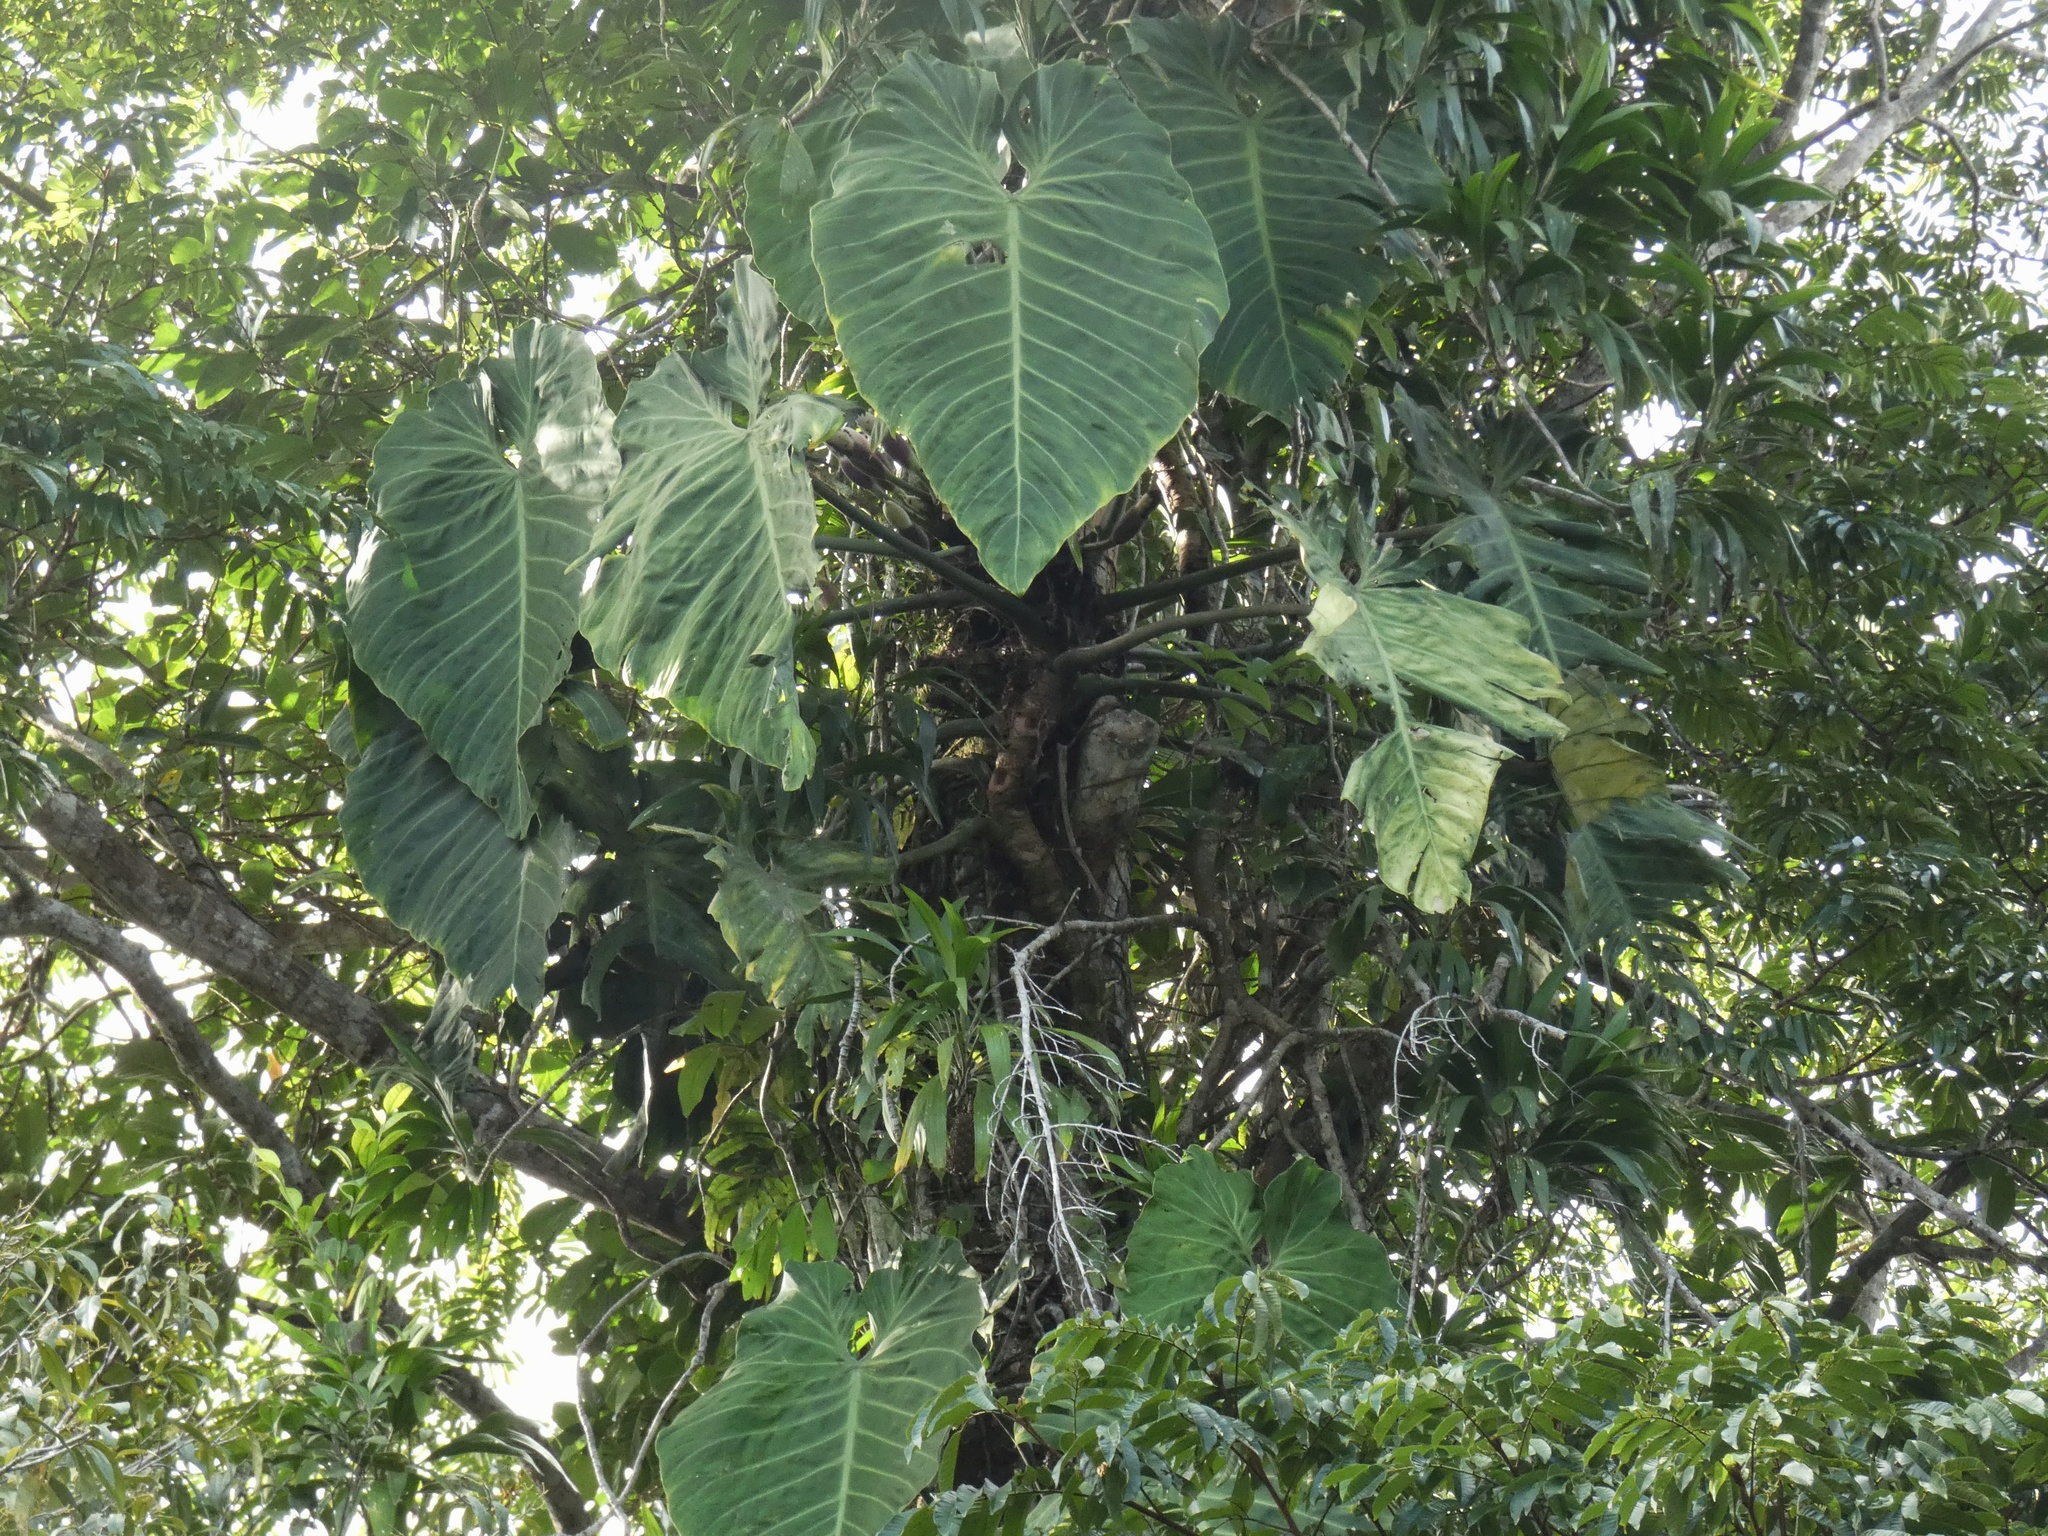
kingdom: Plantae
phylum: Tracheophyta
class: Liliopsida
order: Alismatales
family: Araceae
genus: Philodendron
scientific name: Philodendron gigas
